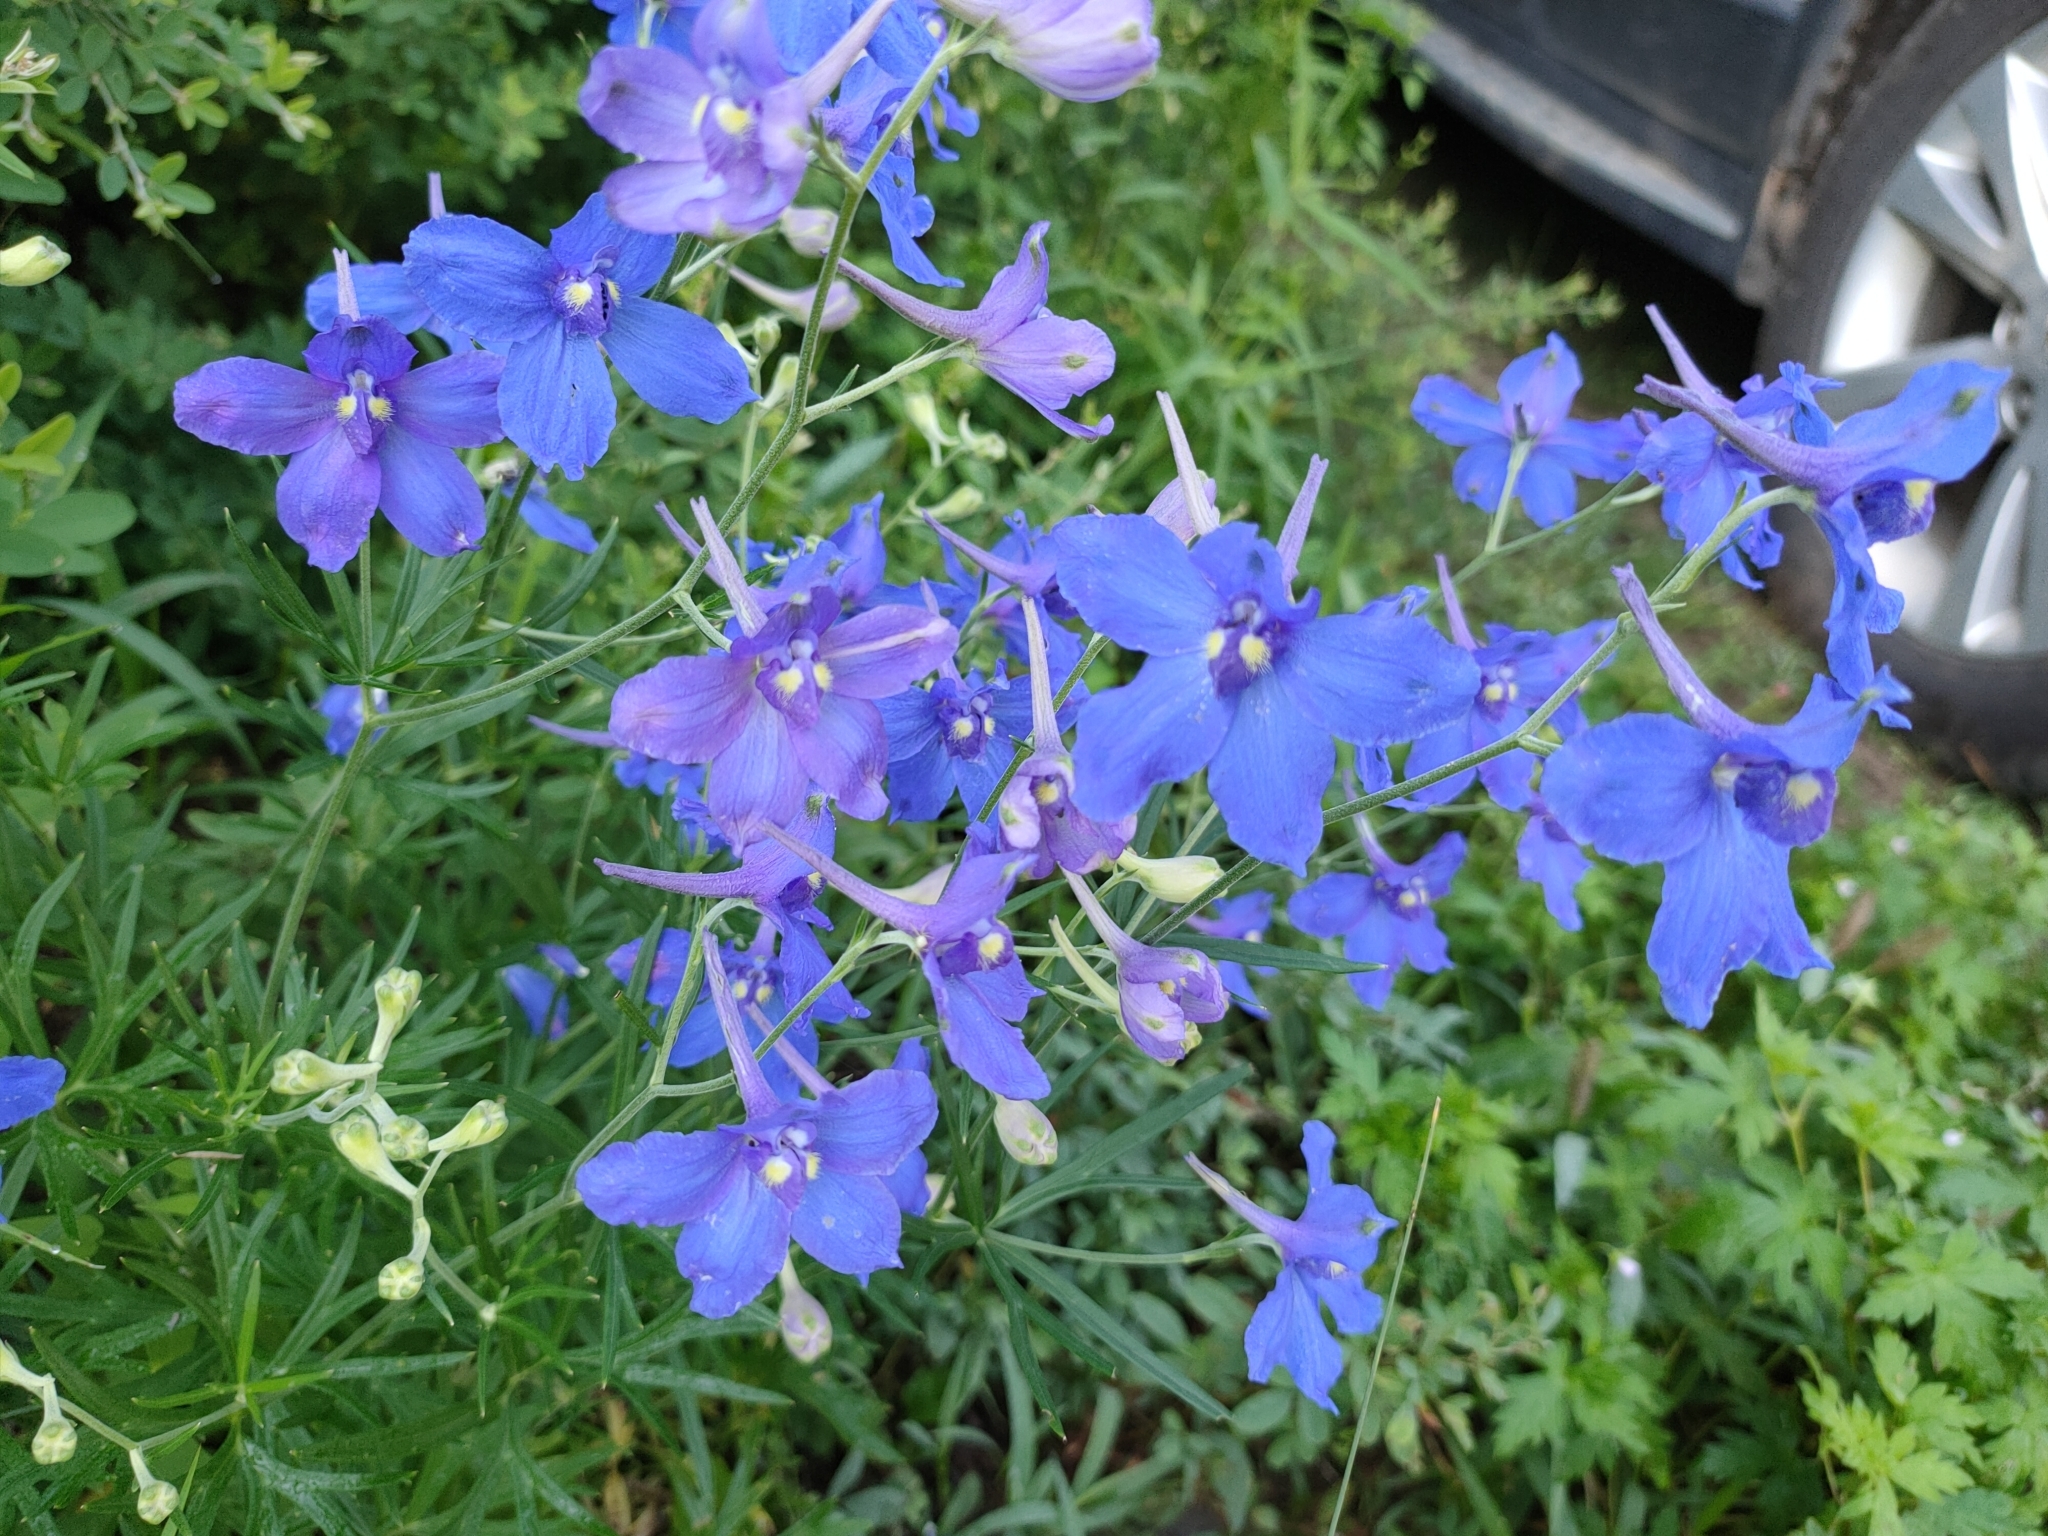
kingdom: Plantae
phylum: Tracheophyta
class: Magnoliopsida
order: Ranunculales
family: Ranunculaceae
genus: Delphinium
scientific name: Delphinium grandiflorum
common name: Siberian larkspur
